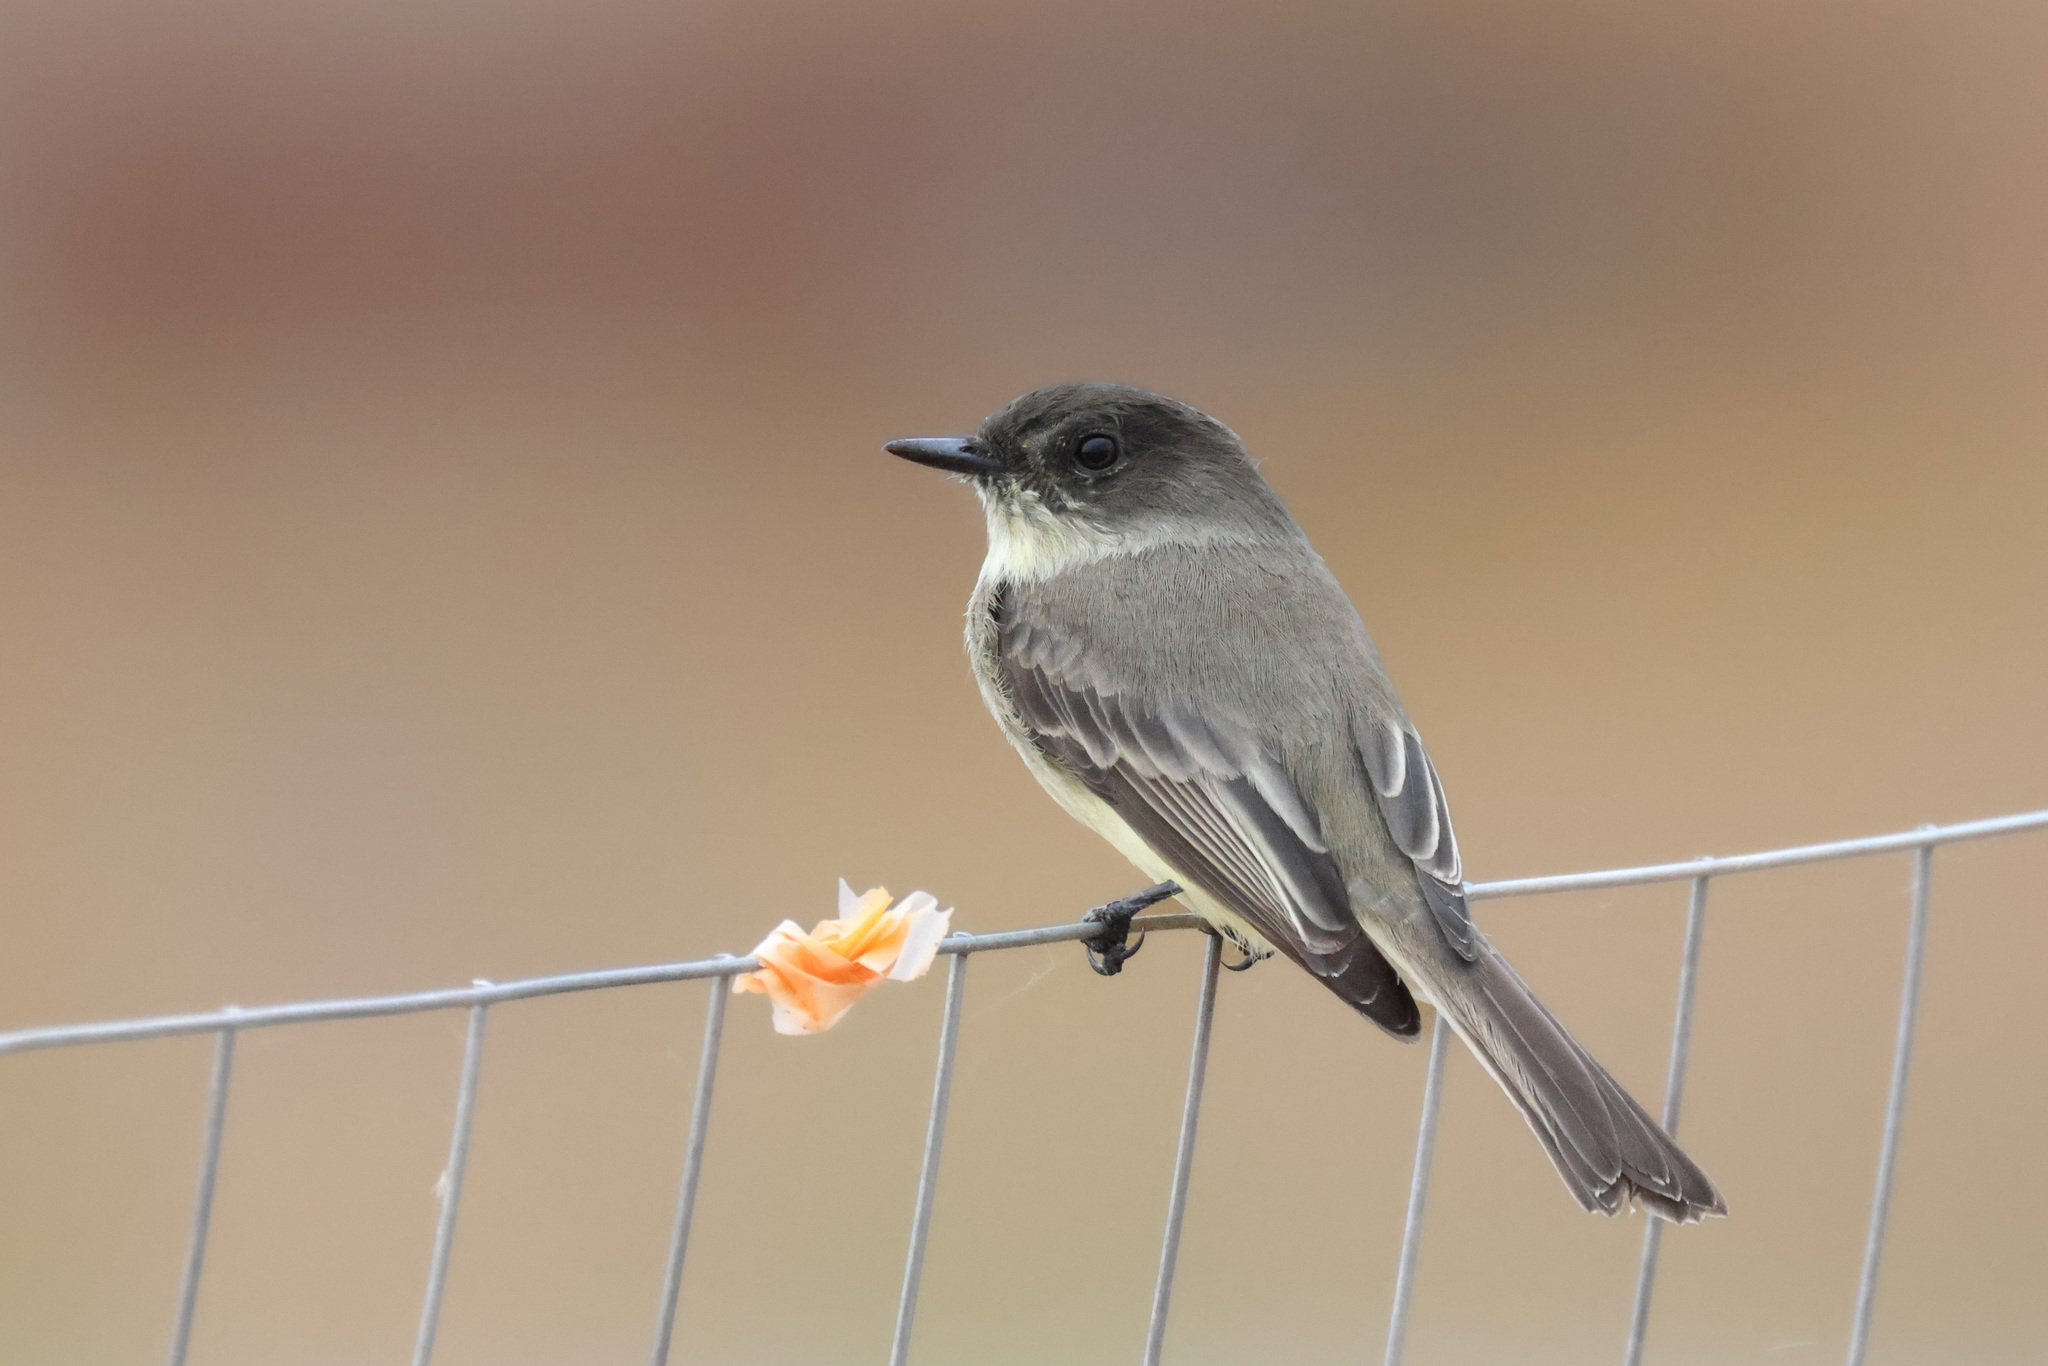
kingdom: Animalia
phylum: Chordata
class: Aves
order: Passeriformes
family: Tyrannidae
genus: Sayornis
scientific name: Sayornis phoebe
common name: Eastern phoebe
